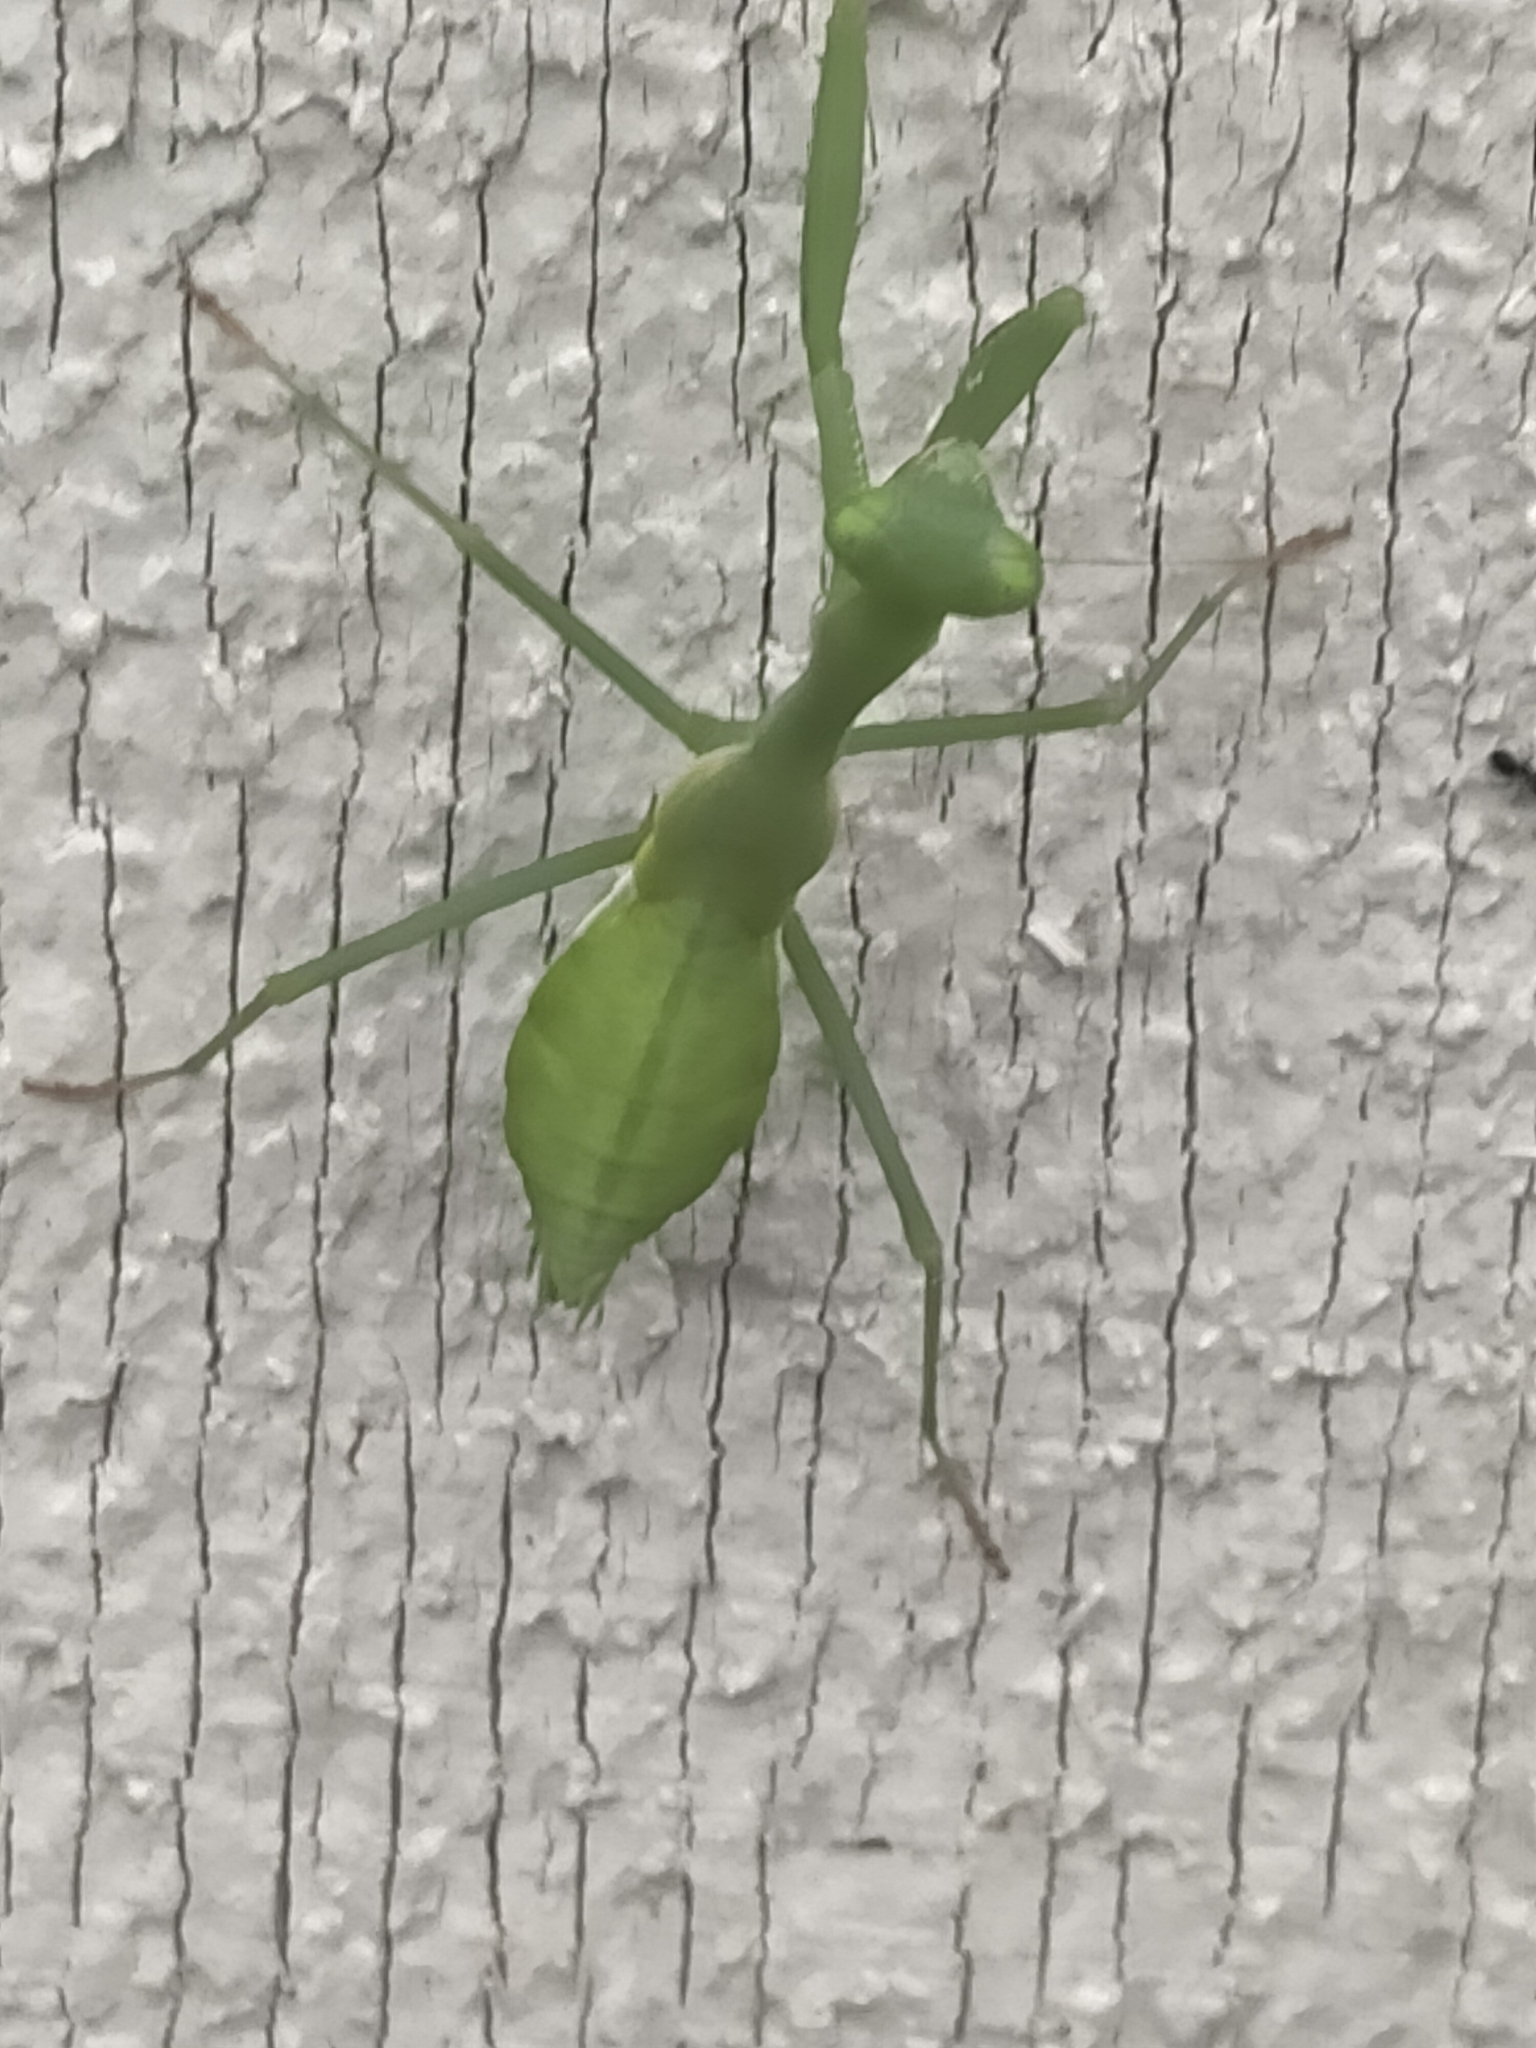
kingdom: Animalia
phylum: Arthropoda
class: Insecta
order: Mantodea
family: Miomantidae
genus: Miomantis
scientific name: Miomantis caffra
